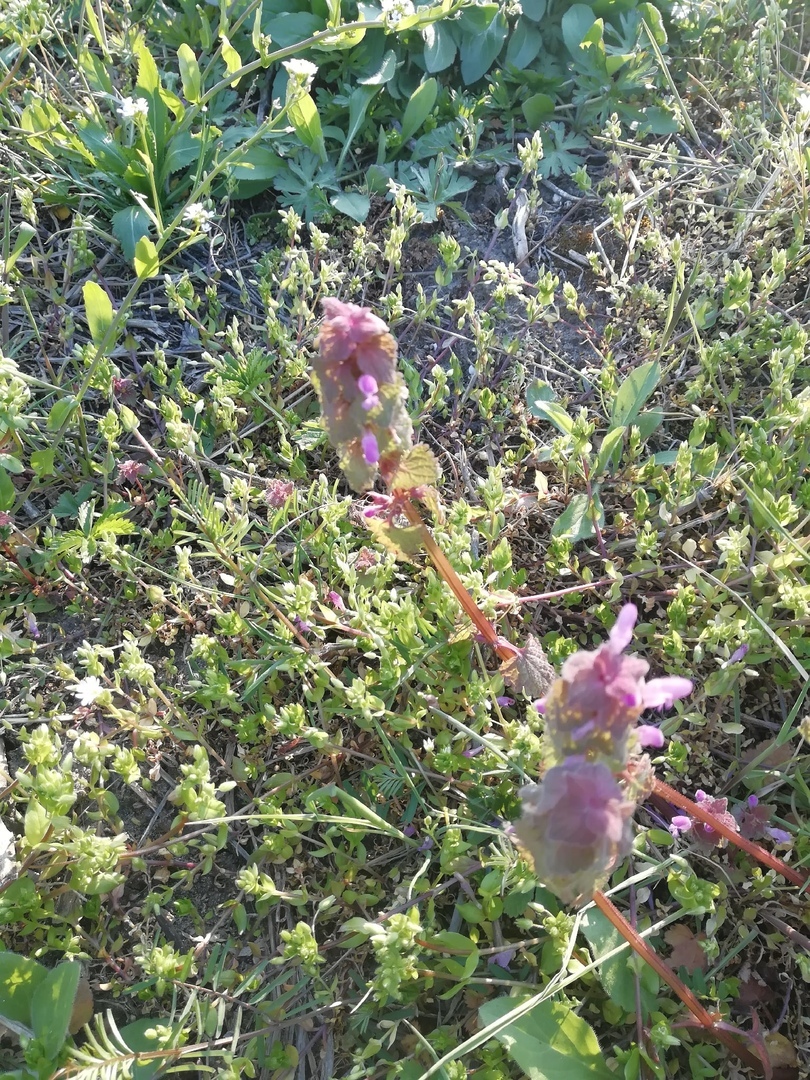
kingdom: Plantae
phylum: Tracheophyta
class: Magnoliopsida
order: Lamiales
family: Lamiaceae
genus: Lamium
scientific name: Lamium purpureum
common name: Red dead-nettle
